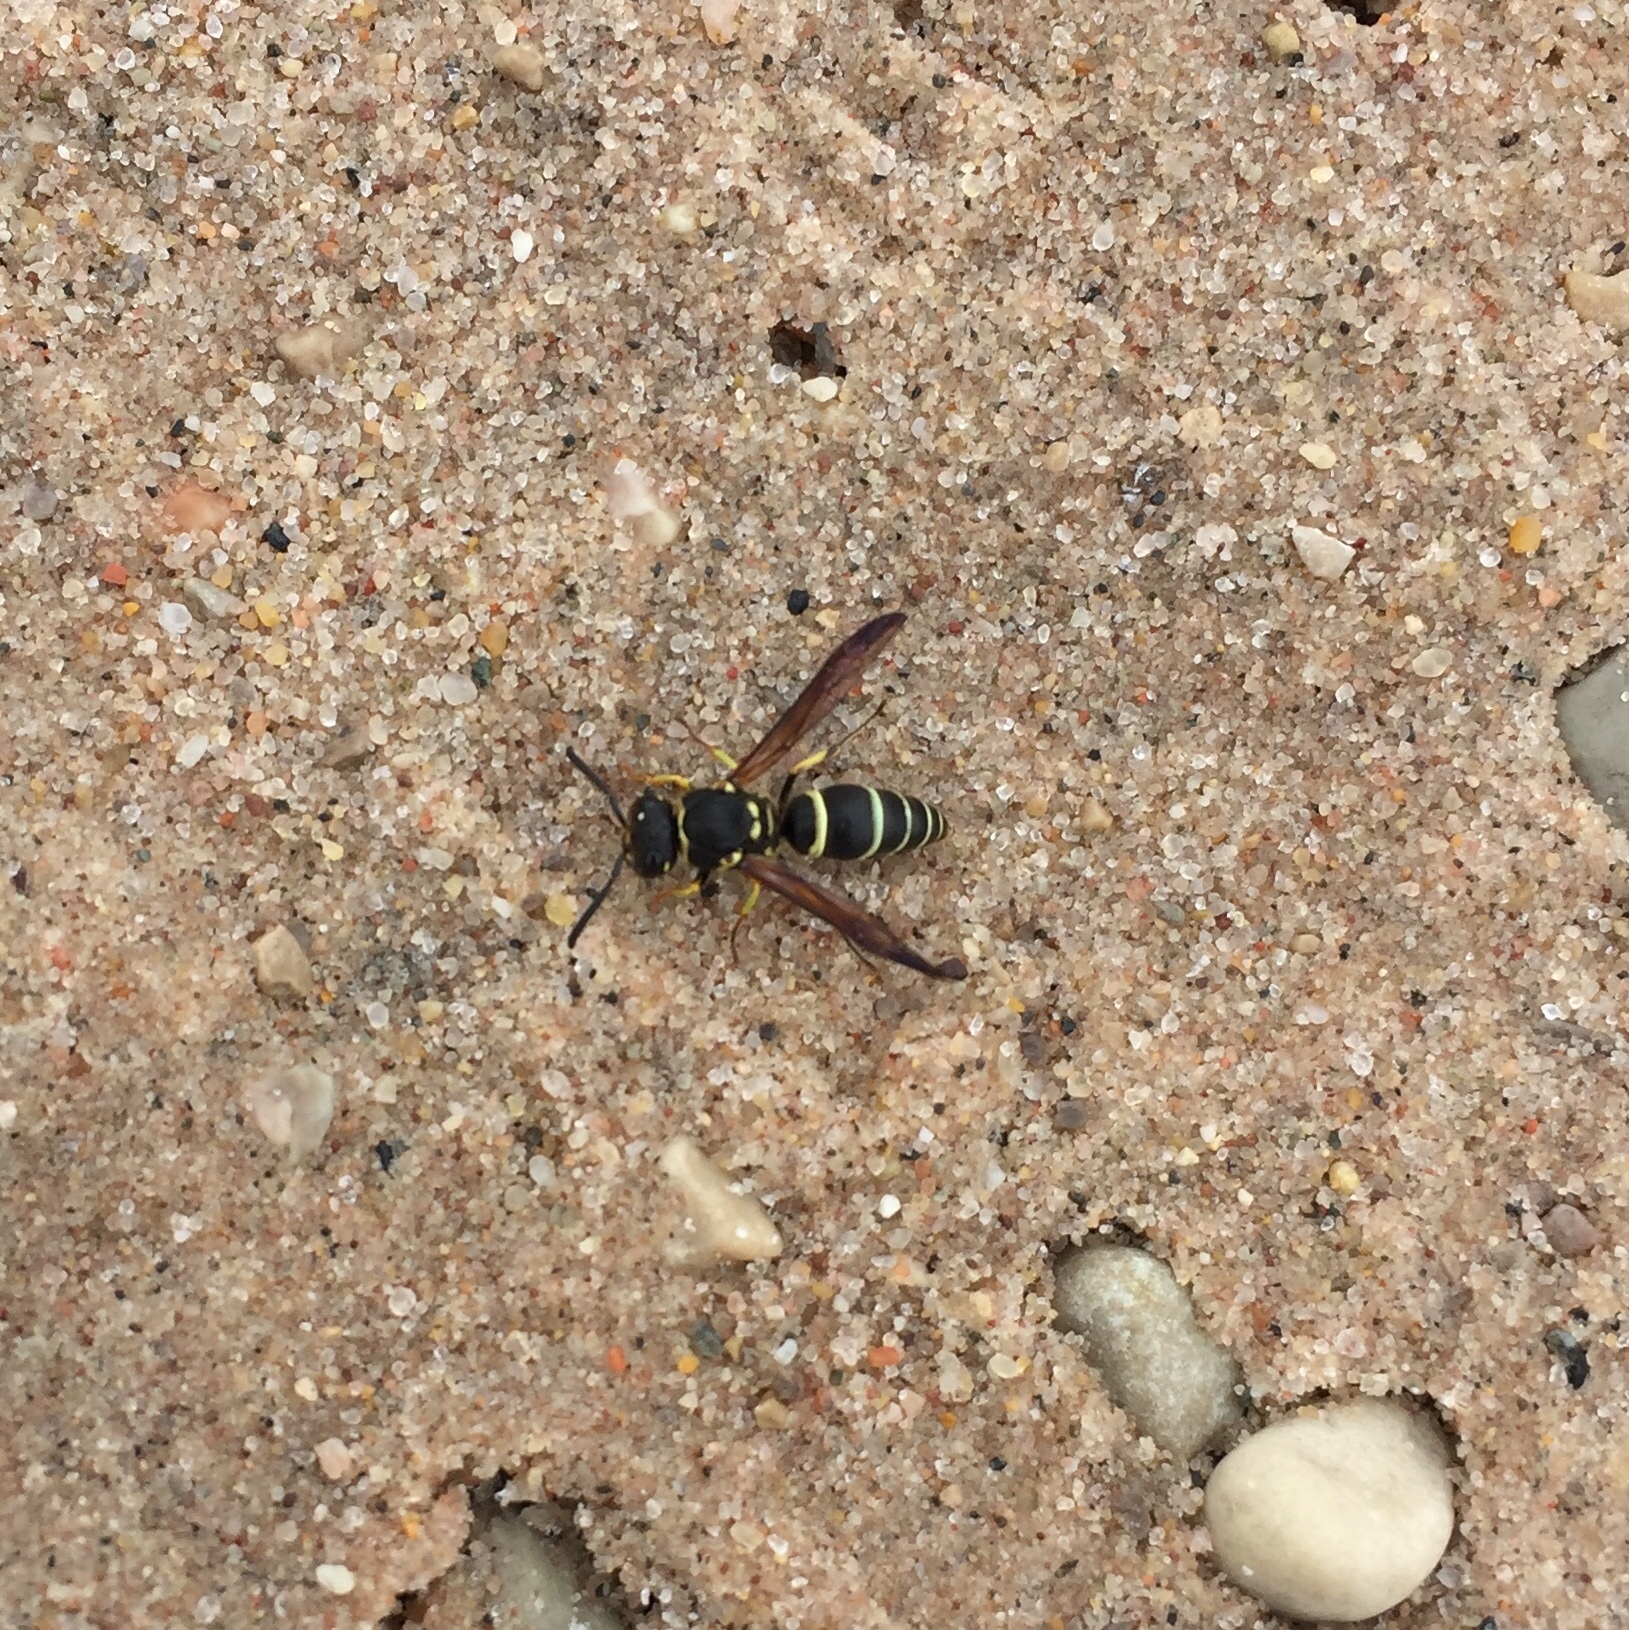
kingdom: Animalia
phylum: Arthropoda
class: Insecta
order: Hymenoptera
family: Vespidae
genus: Ancistrocerus
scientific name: Ancistrocerus catskill
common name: Vespid wasp
